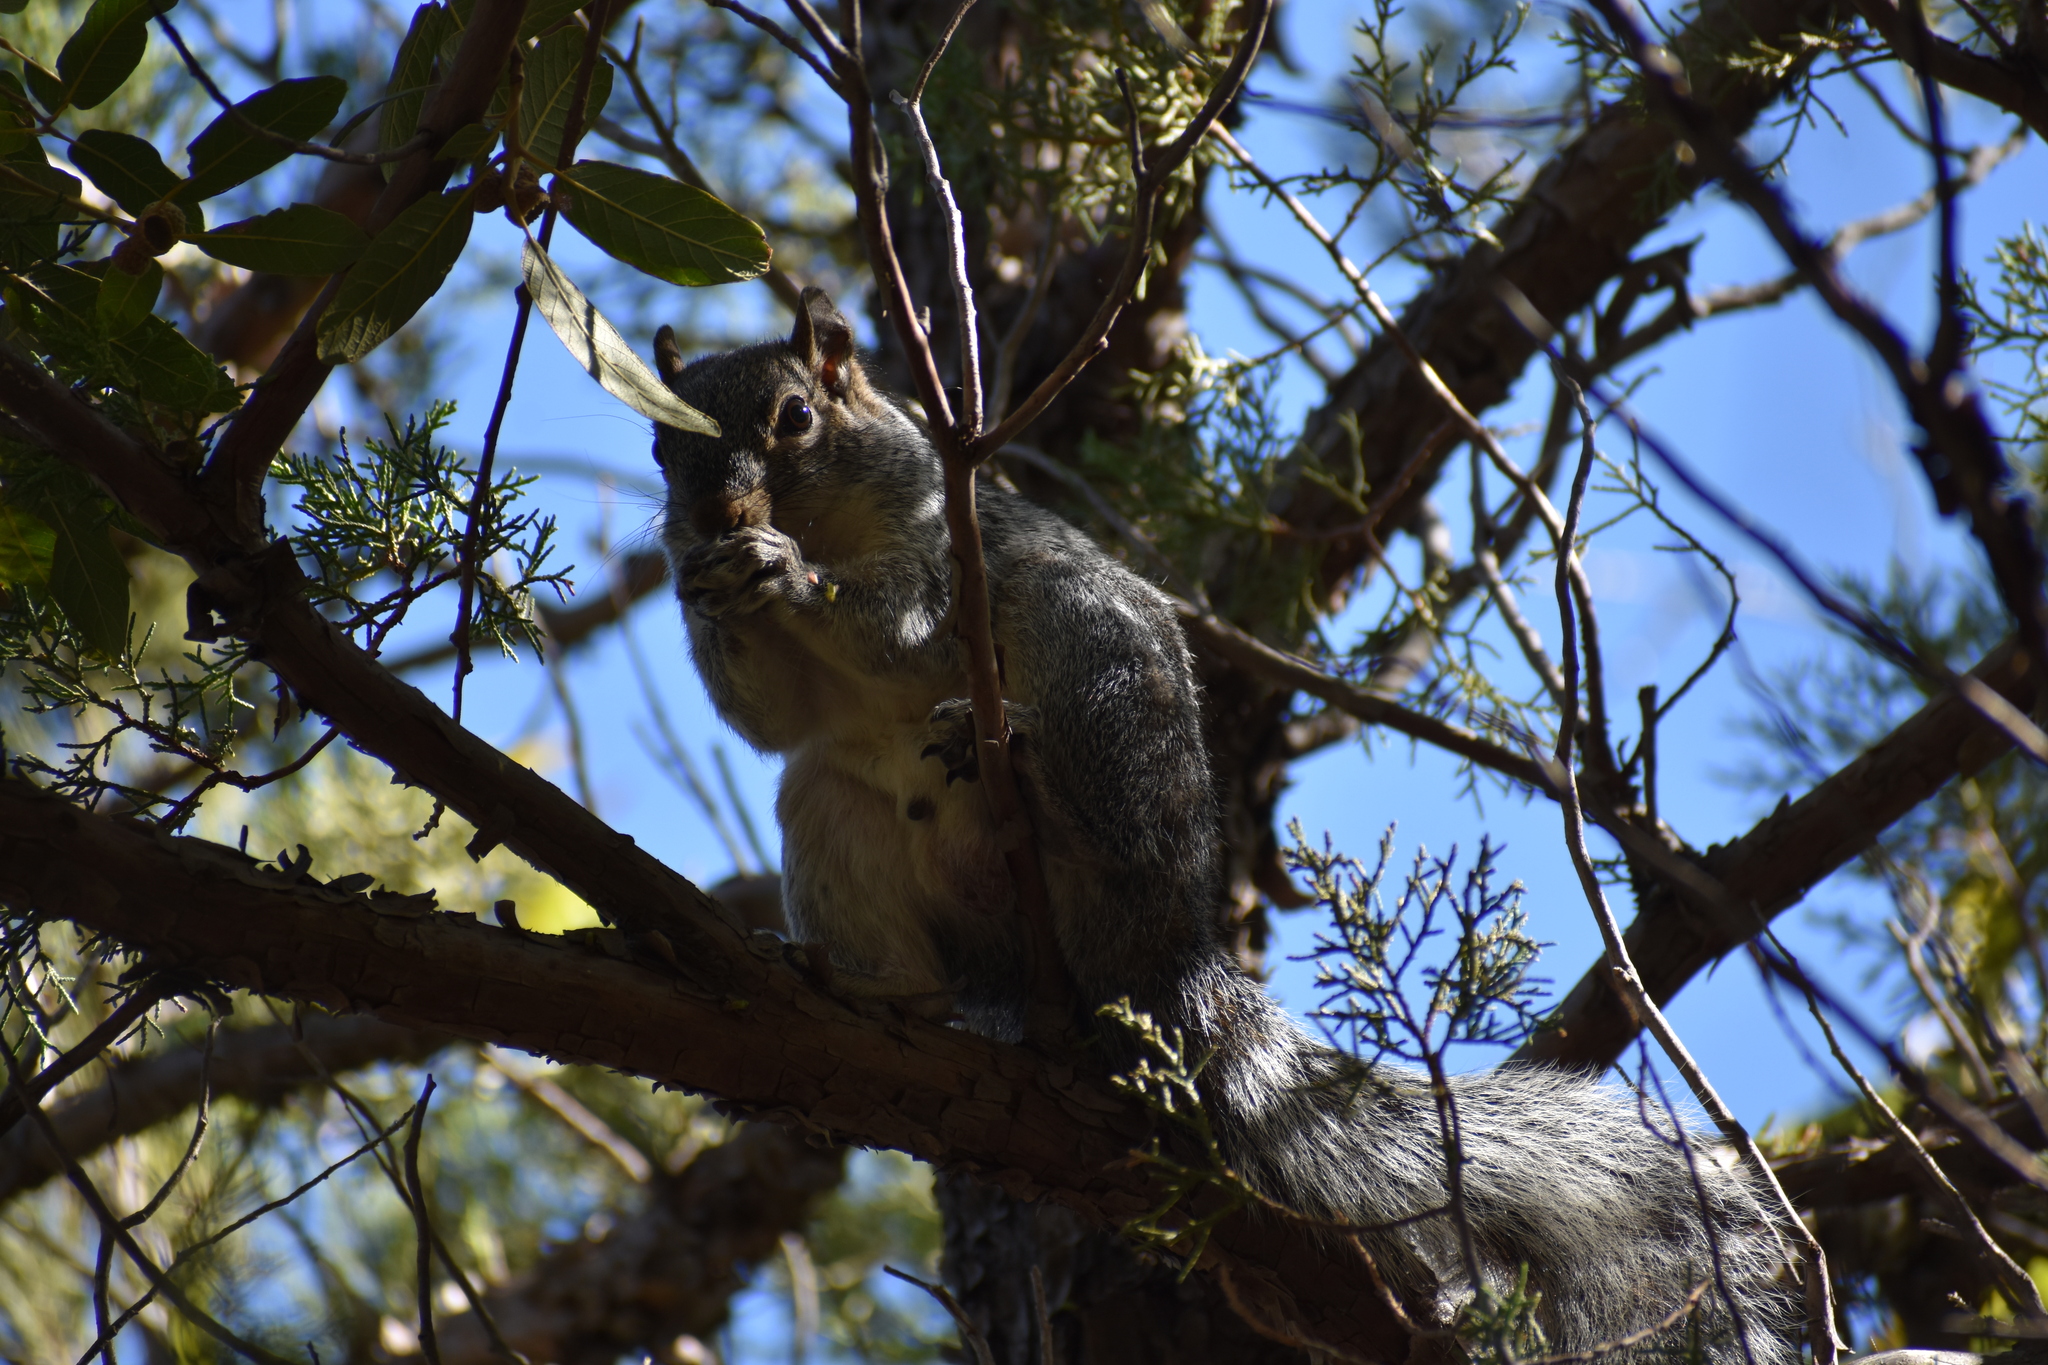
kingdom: Animalia
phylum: Chordata
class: Mammalia
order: Rodentia
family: Sciuridae
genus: Sciurus
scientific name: Sciurus arizonensis
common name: Arizona gray squirrel
